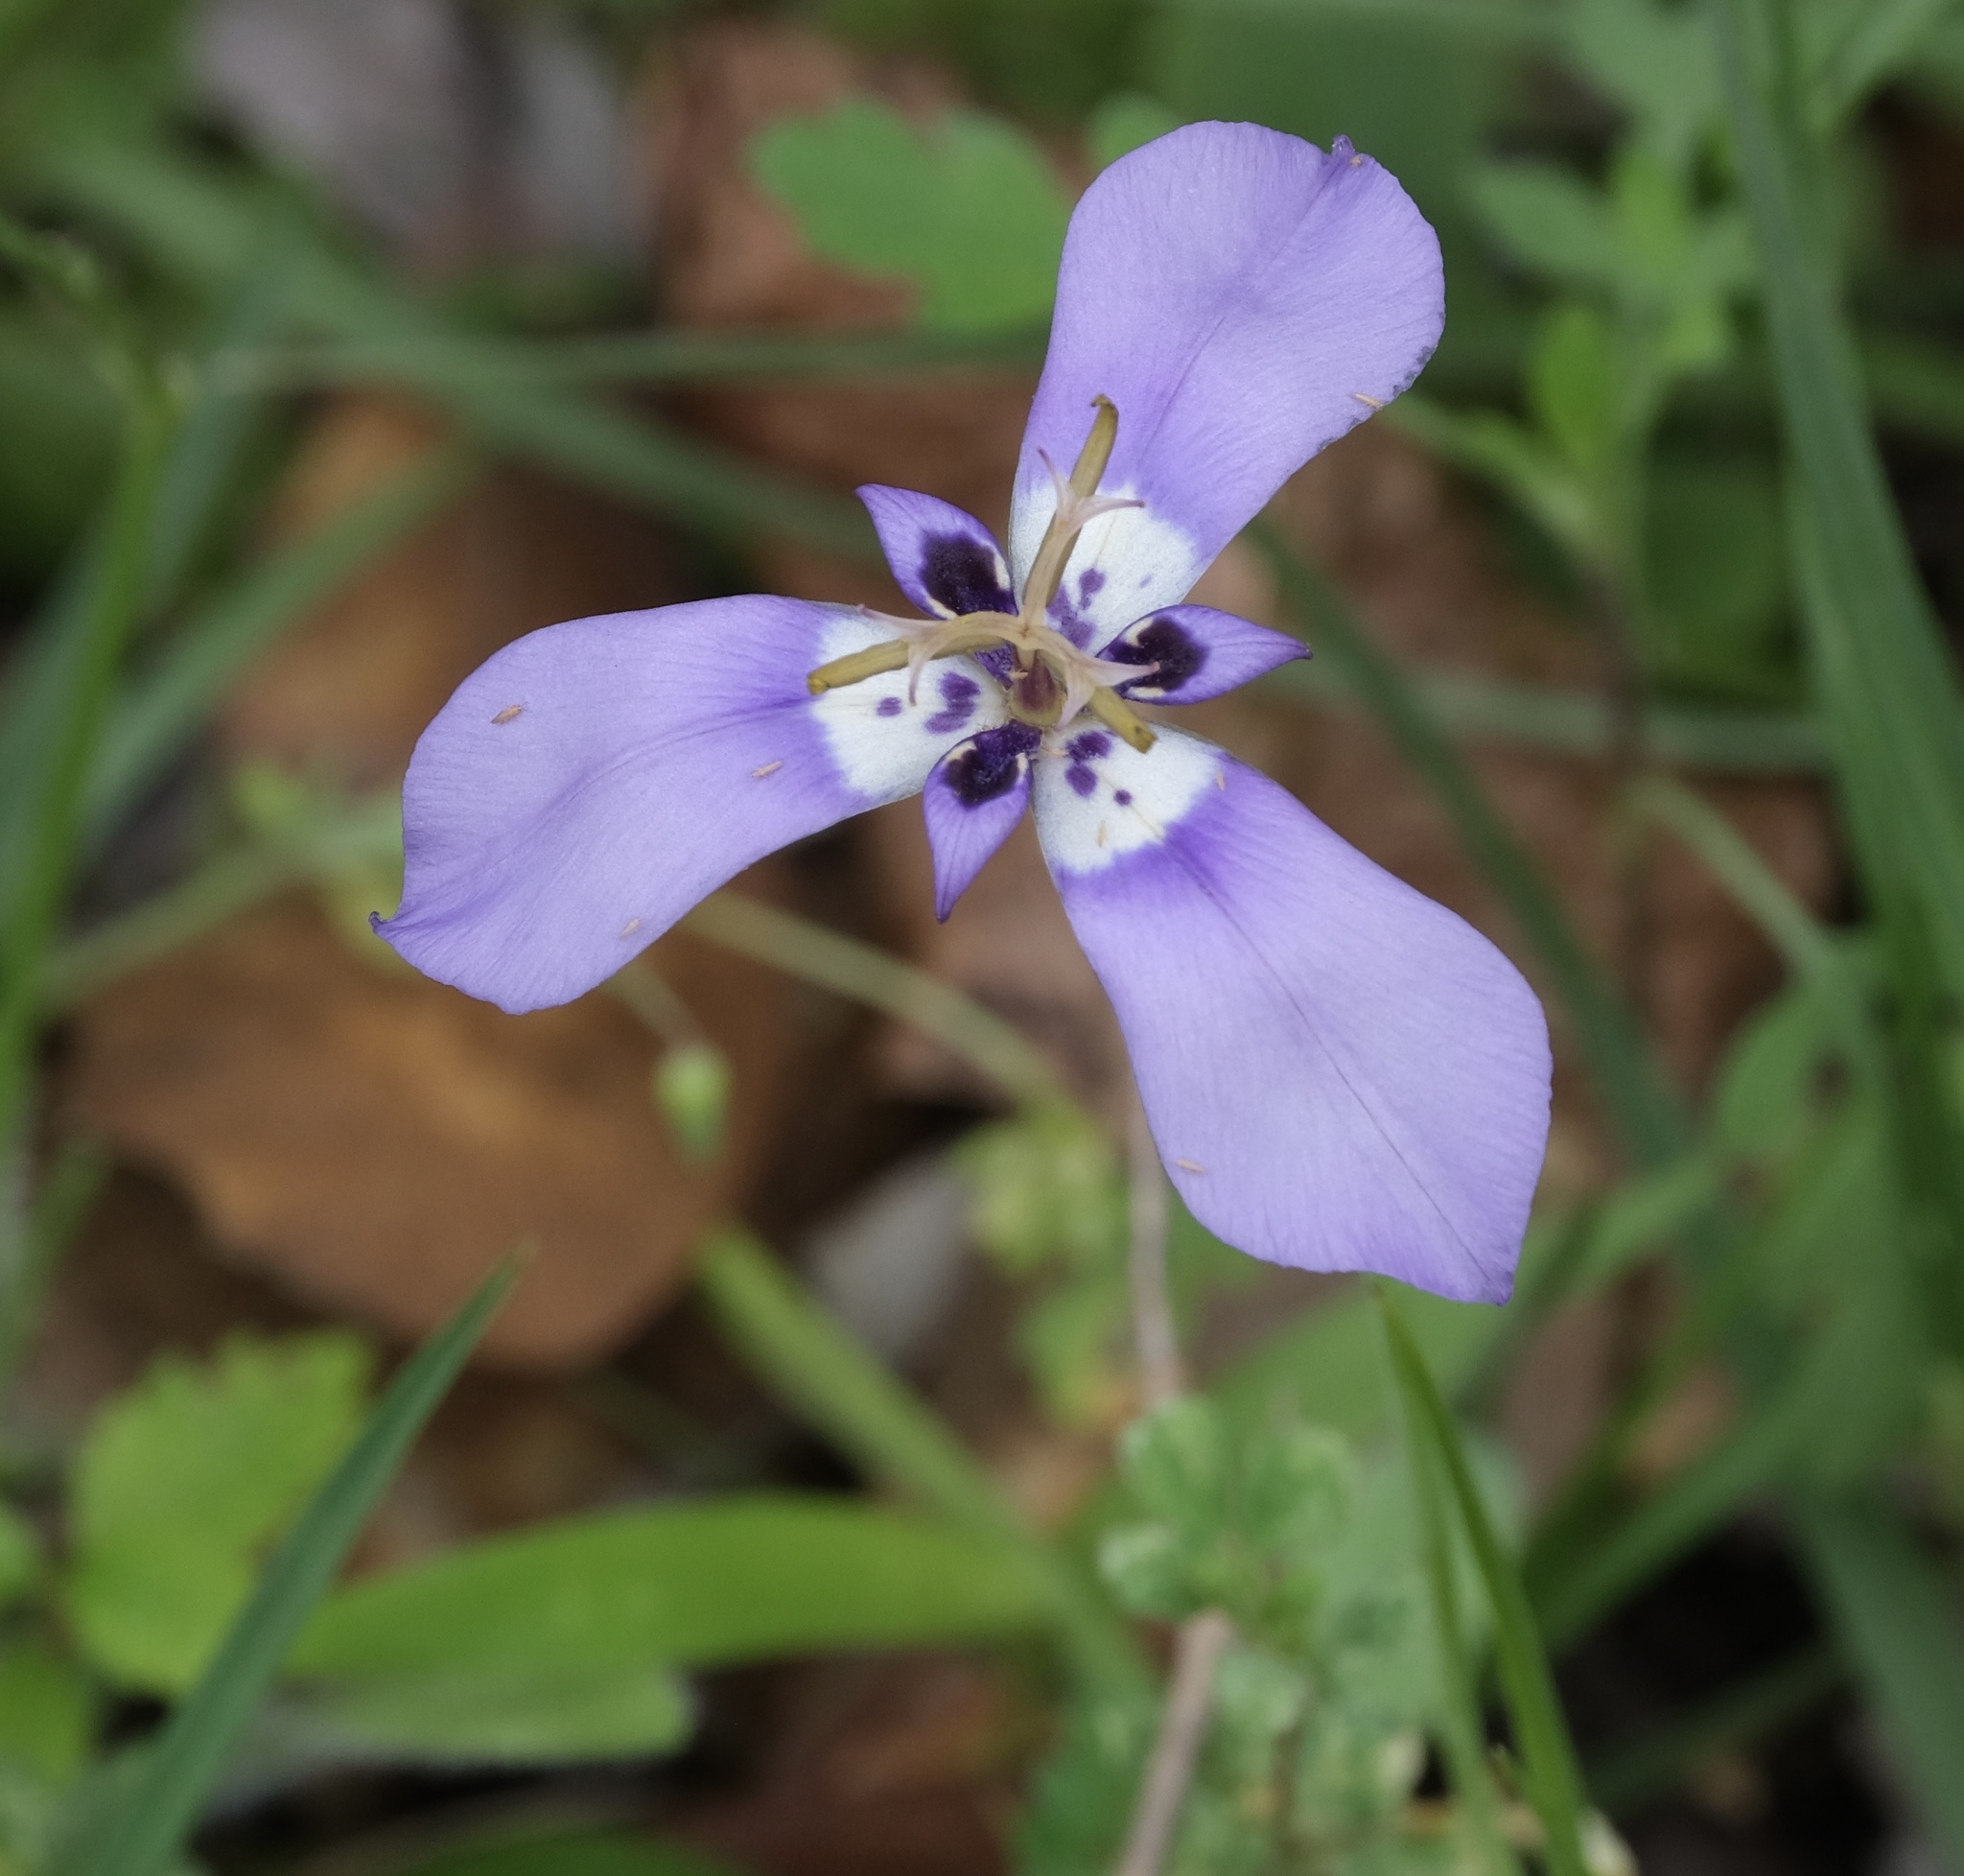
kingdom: Plantae
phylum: Tracheophyta
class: Liliopsida
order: Asparagales
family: Iridaceae
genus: Herbertia
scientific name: Herbertia lahue
